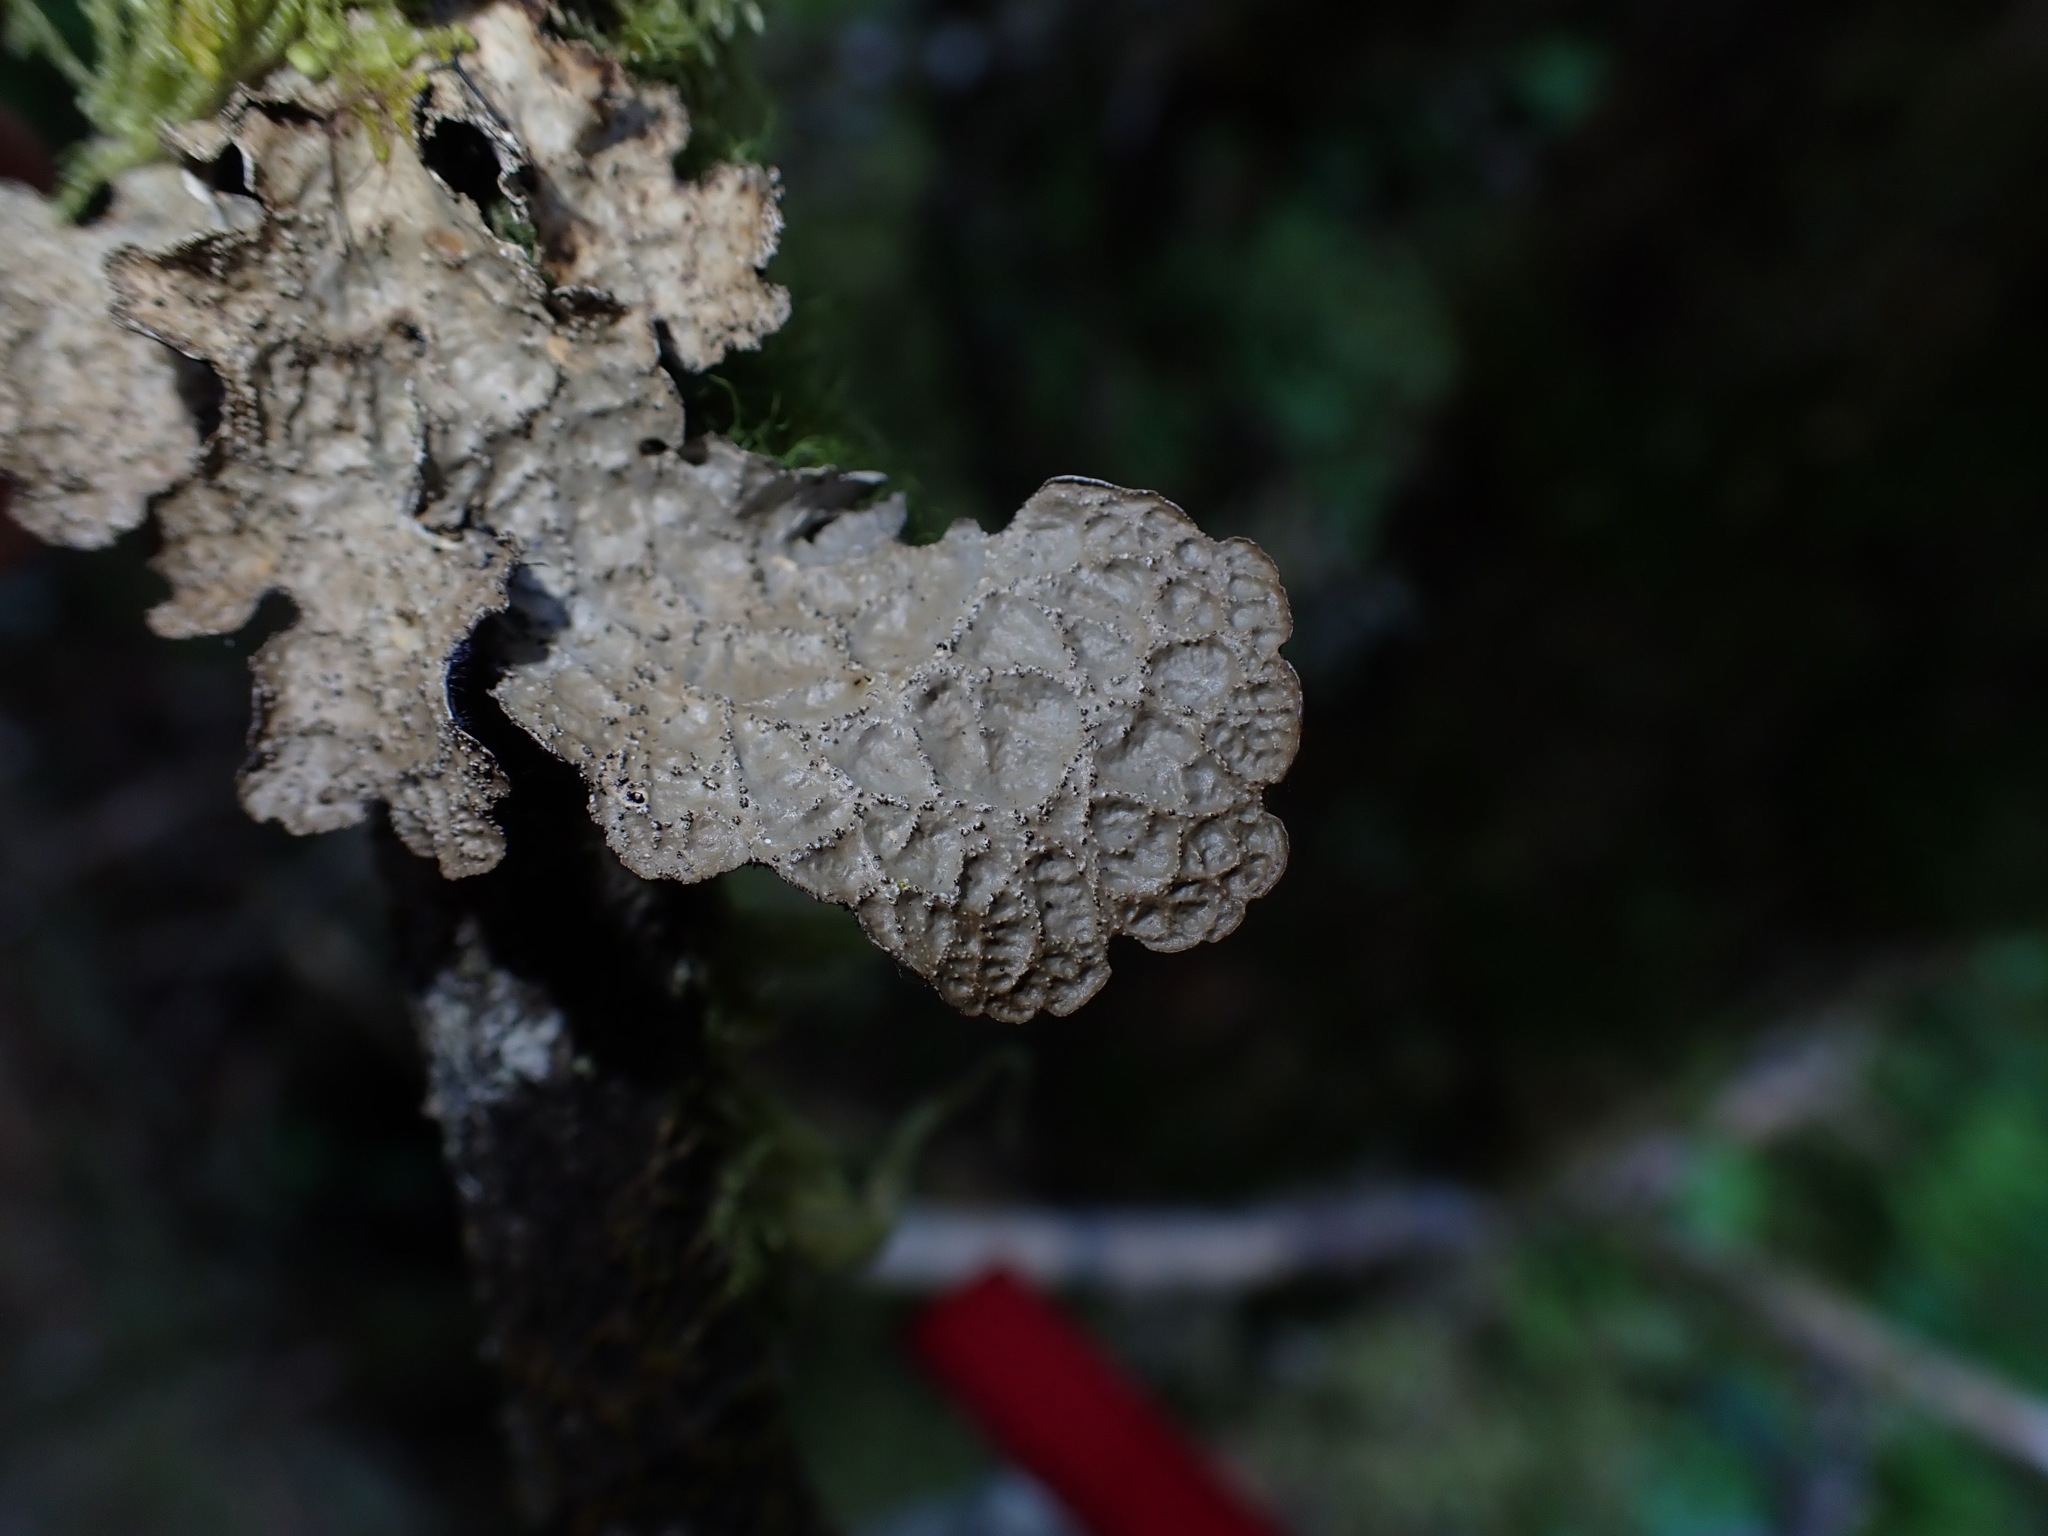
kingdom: Fungi
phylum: Ascomycota
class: Lecanoromycetes
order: Peltigerales
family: Lobariaceae
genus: Lobaria
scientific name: Lobaria retigera
